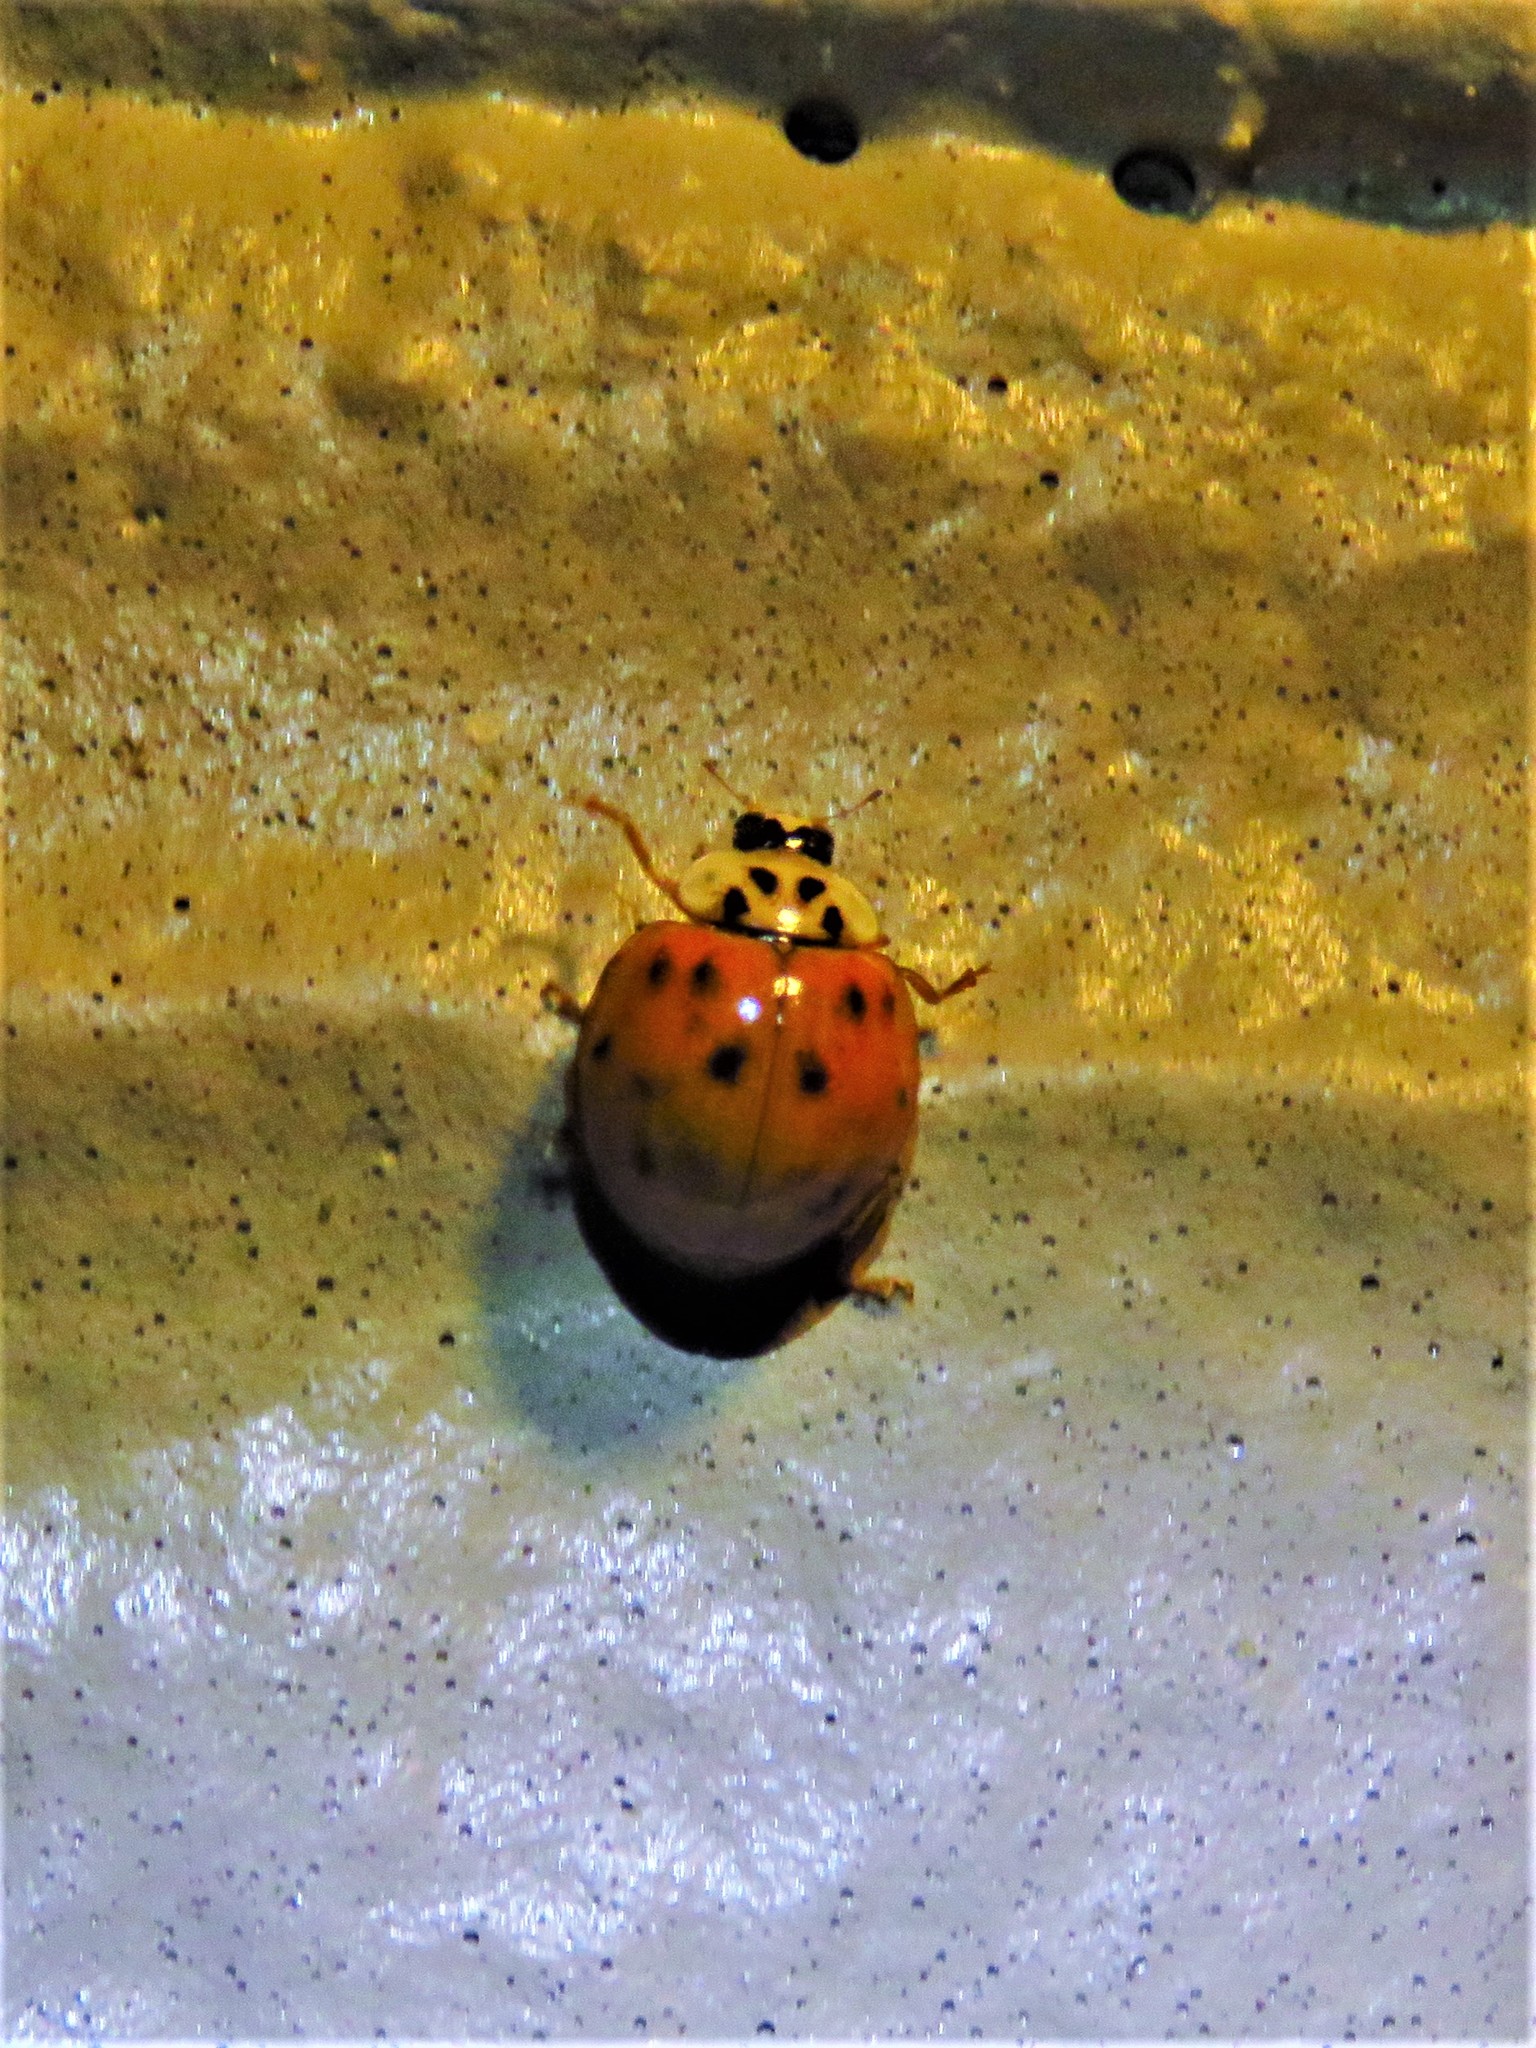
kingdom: Animalia
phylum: Arthropoda
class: Insecta
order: Coleoptera
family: Coccinellidae
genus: Harmonia
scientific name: Harmonia axyridis
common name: Harlequin ladybird
